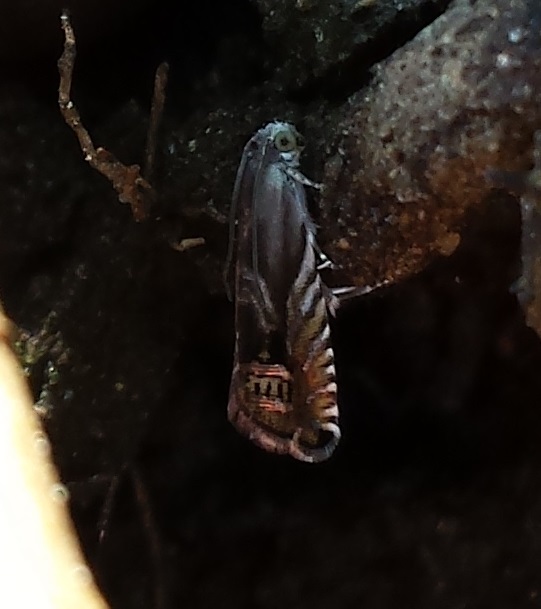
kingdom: Animalia
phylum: Arthropoda
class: Insecta
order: Lepidoptera
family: Tortricidae
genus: Grapholita
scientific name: Grapholita
